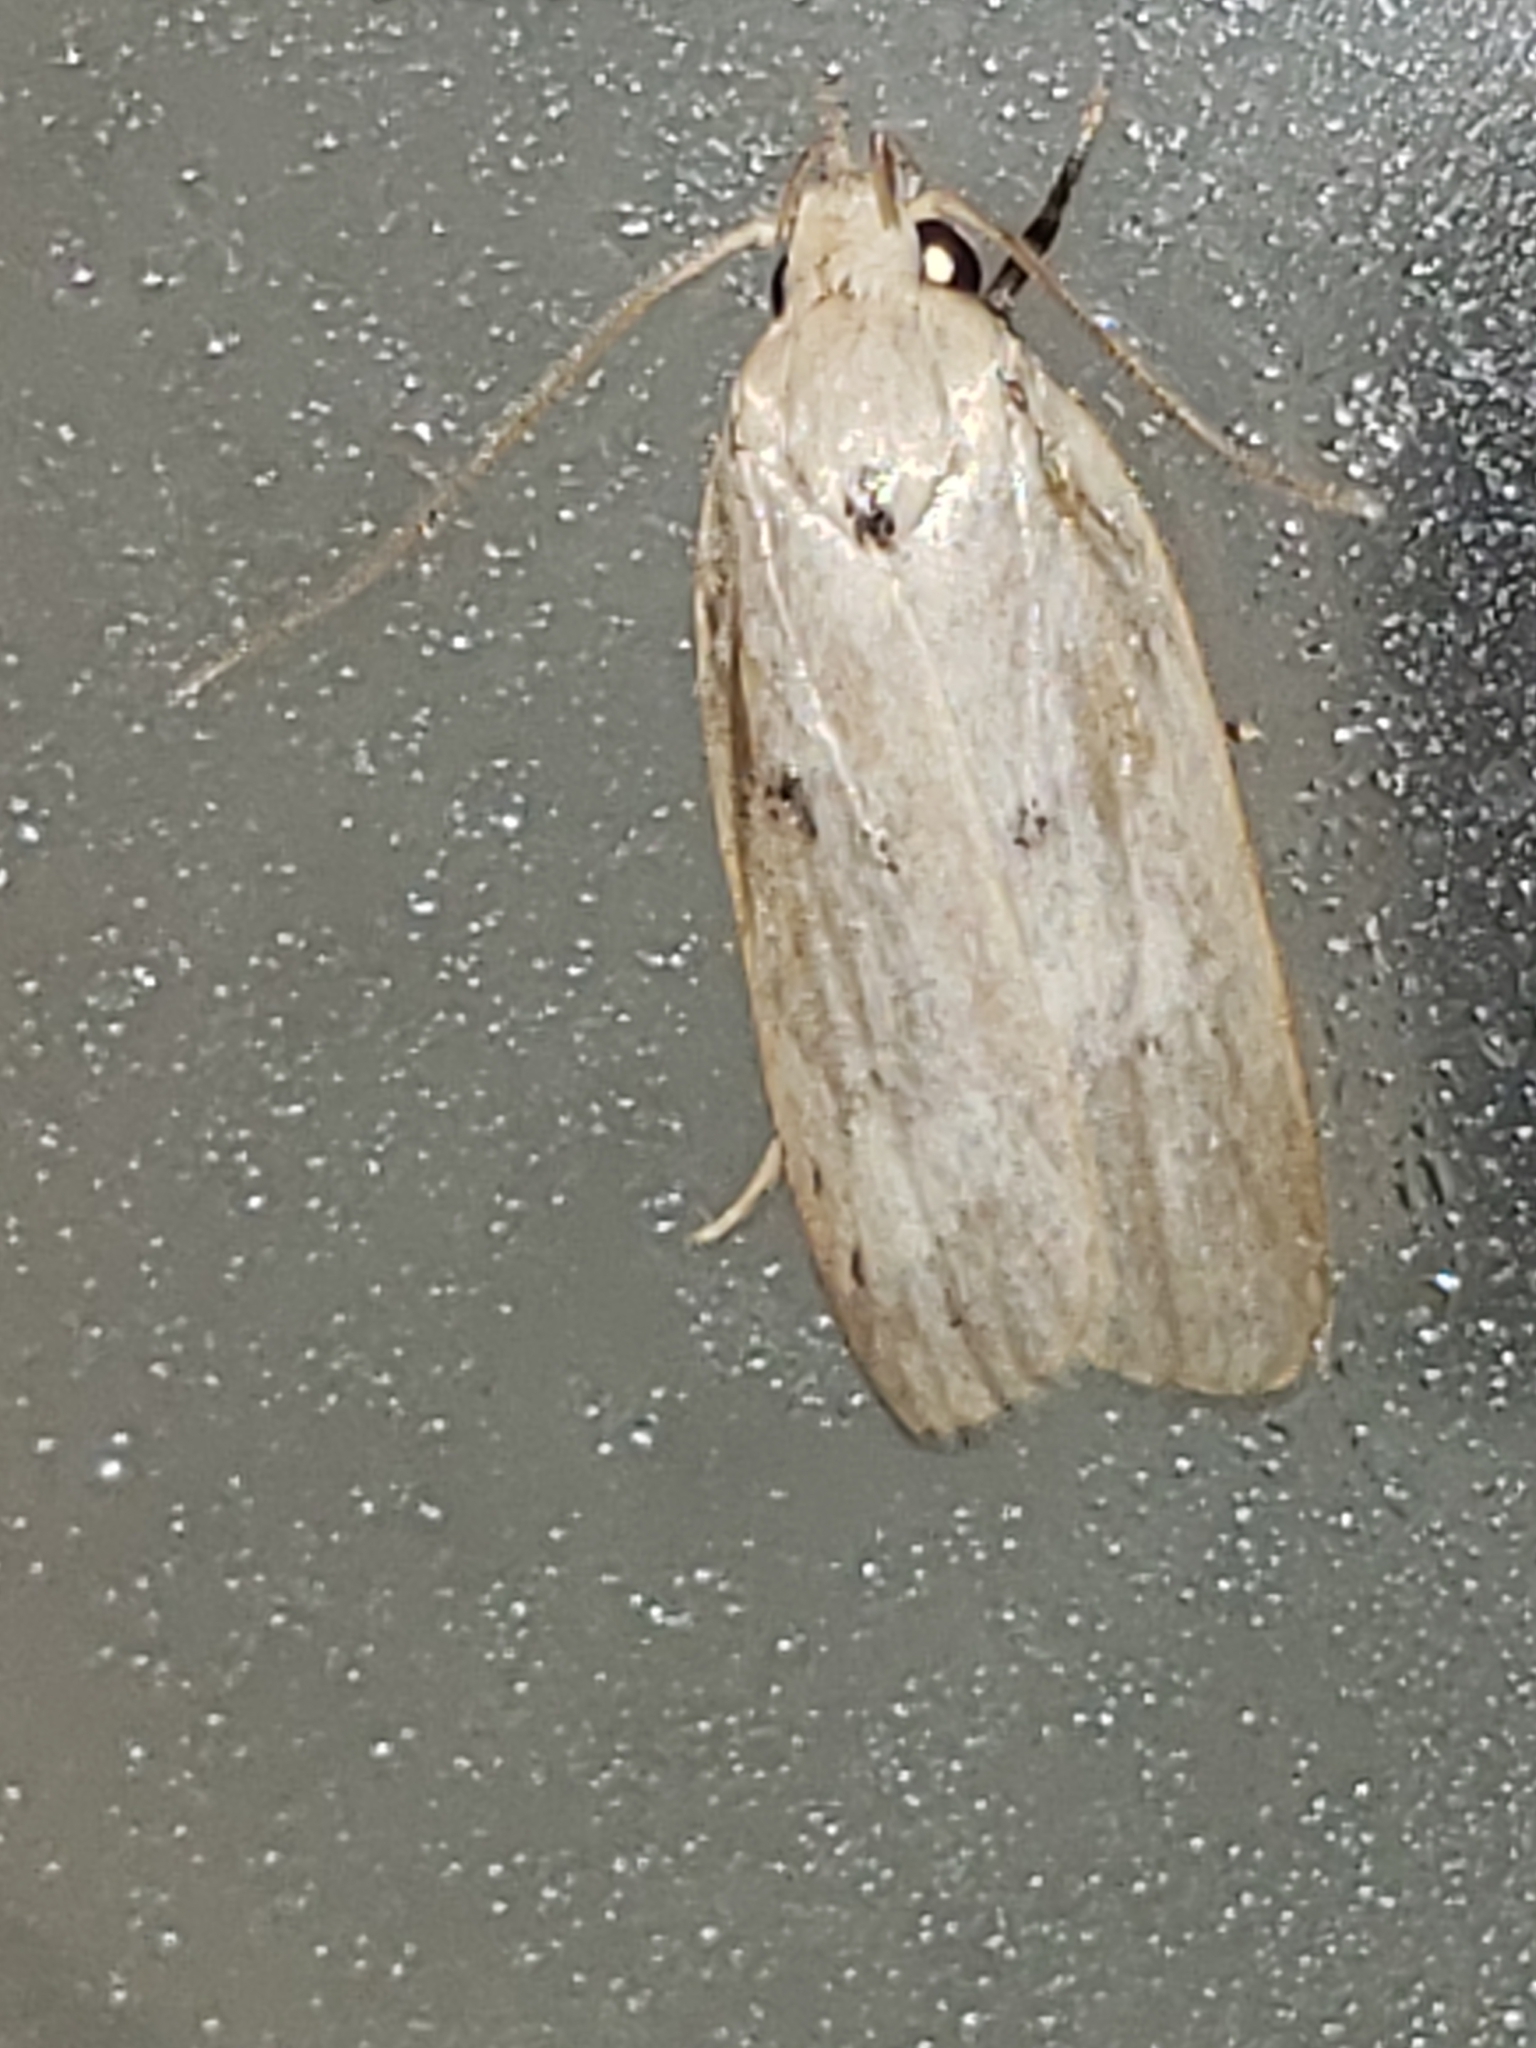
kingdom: Animalia
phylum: Arthropoda
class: Insecta
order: Lepidoptera
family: Peleopodidae
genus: Scythropiodes
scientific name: Scythropiodes issikii
